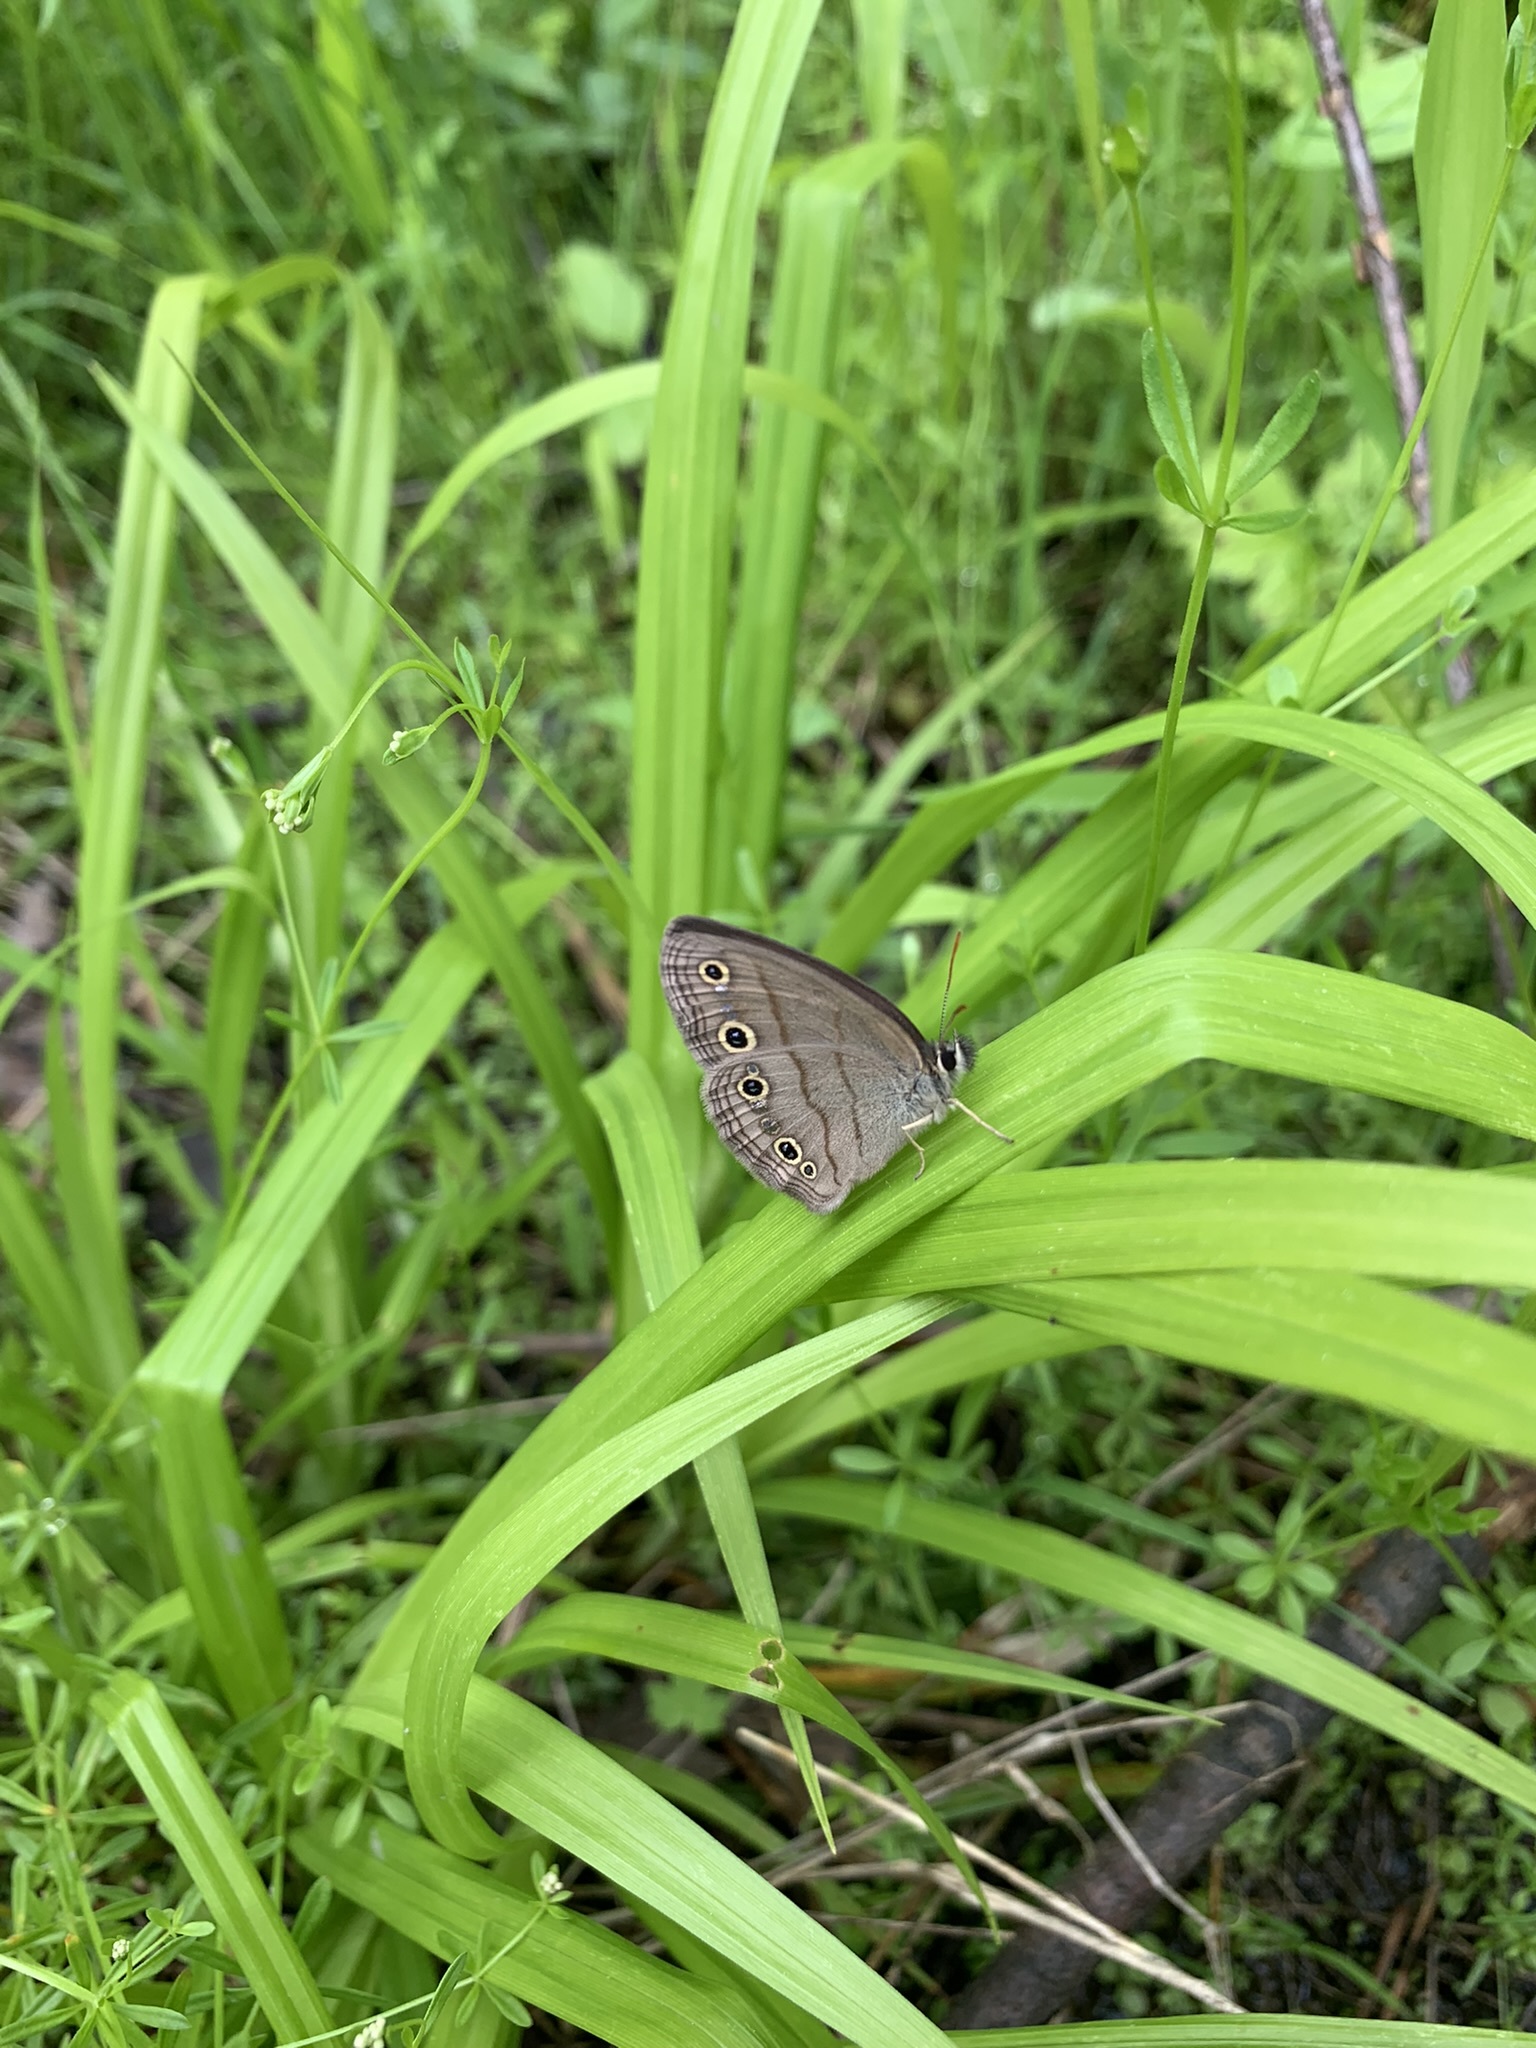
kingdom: Animalia
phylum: Arthropoda
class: Insecta
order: Lepidoptera
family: Nymphalidae
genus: Euptychia
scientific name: Euptychia cymela
